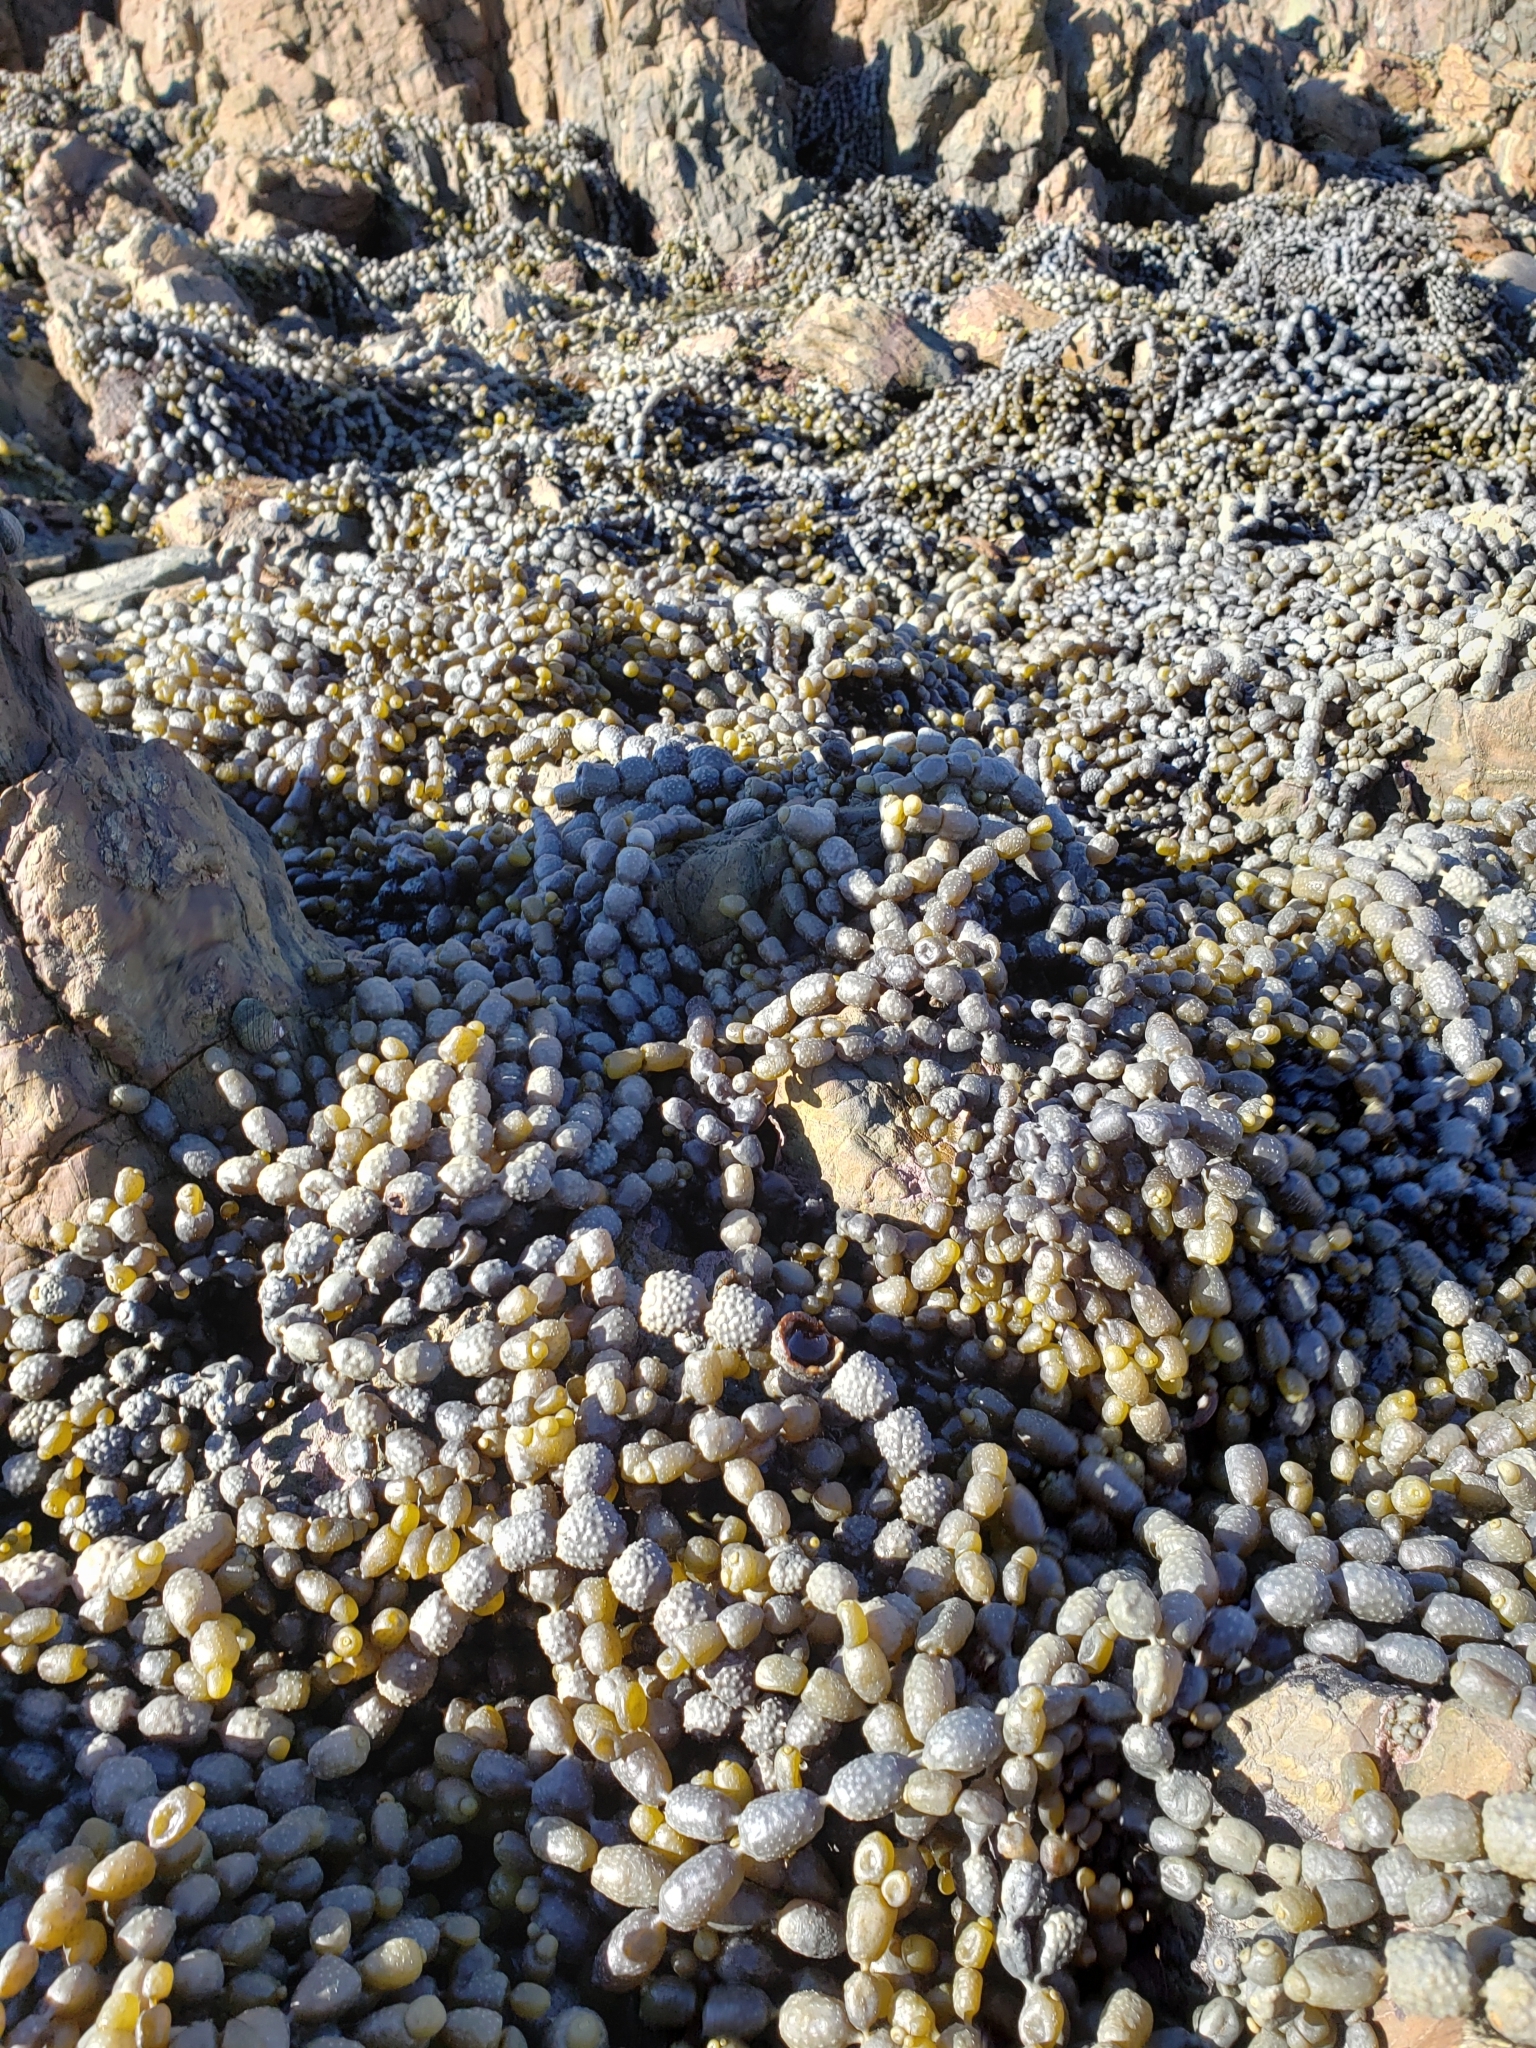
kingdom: Chromista
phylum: Ochrophyta
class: Phaeophyceae
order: Fucales
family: Hormosiraceae
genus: Hormosira
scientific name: Hormosira banksii
